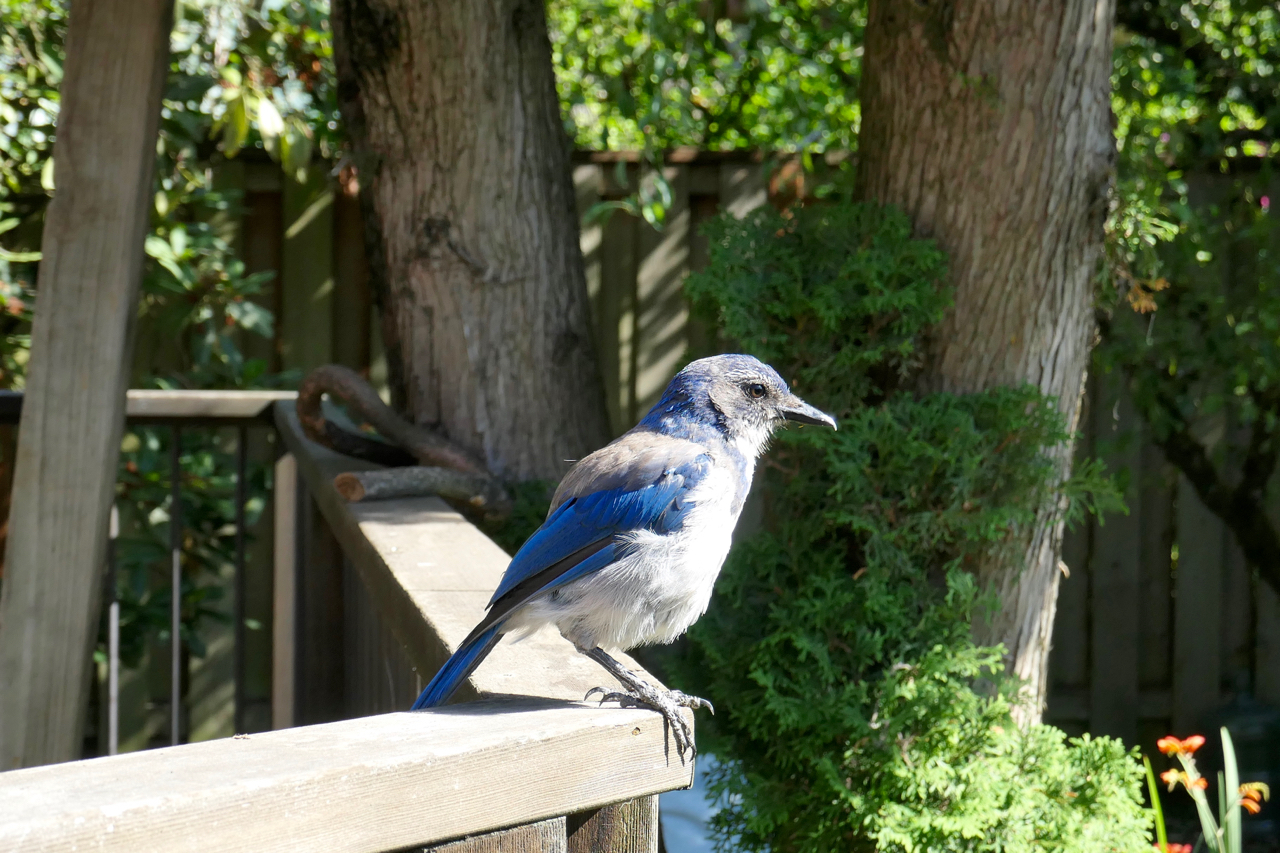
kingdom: Animalia
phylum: Chordata
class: Aves
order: Passeriformes
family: Corvidae
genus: Aphelocoma
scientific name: Aphelocoma californica
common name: California scrub-jay
